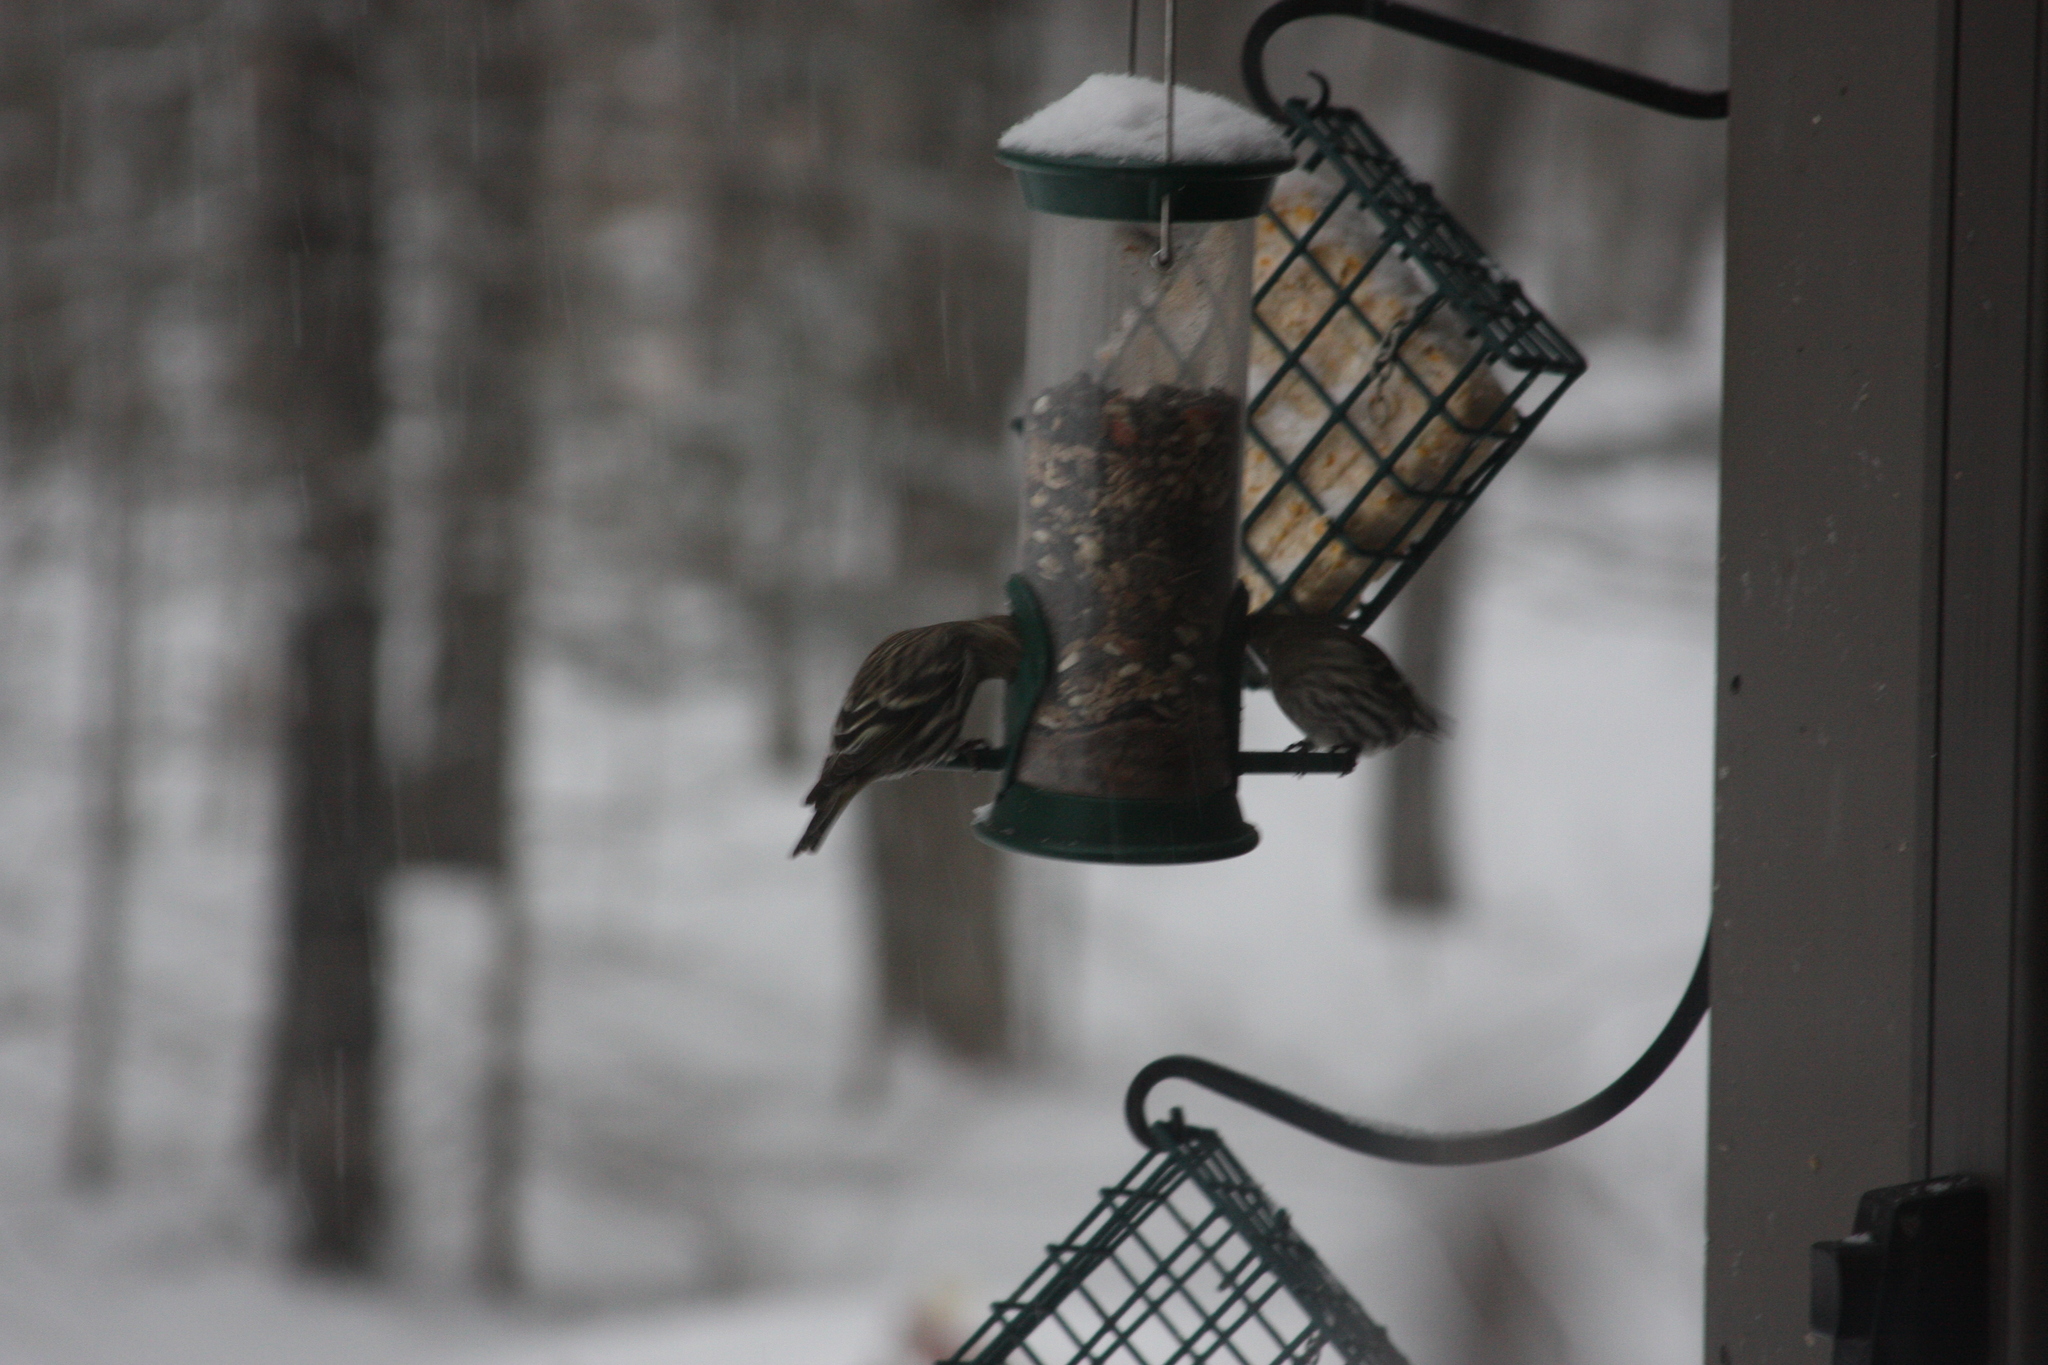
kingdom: Animalia
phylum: Chordata
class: Aves
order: Passeriformes
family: Fringillidae
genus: Spinus
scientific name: Spinus pinus
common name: Pine siskin
